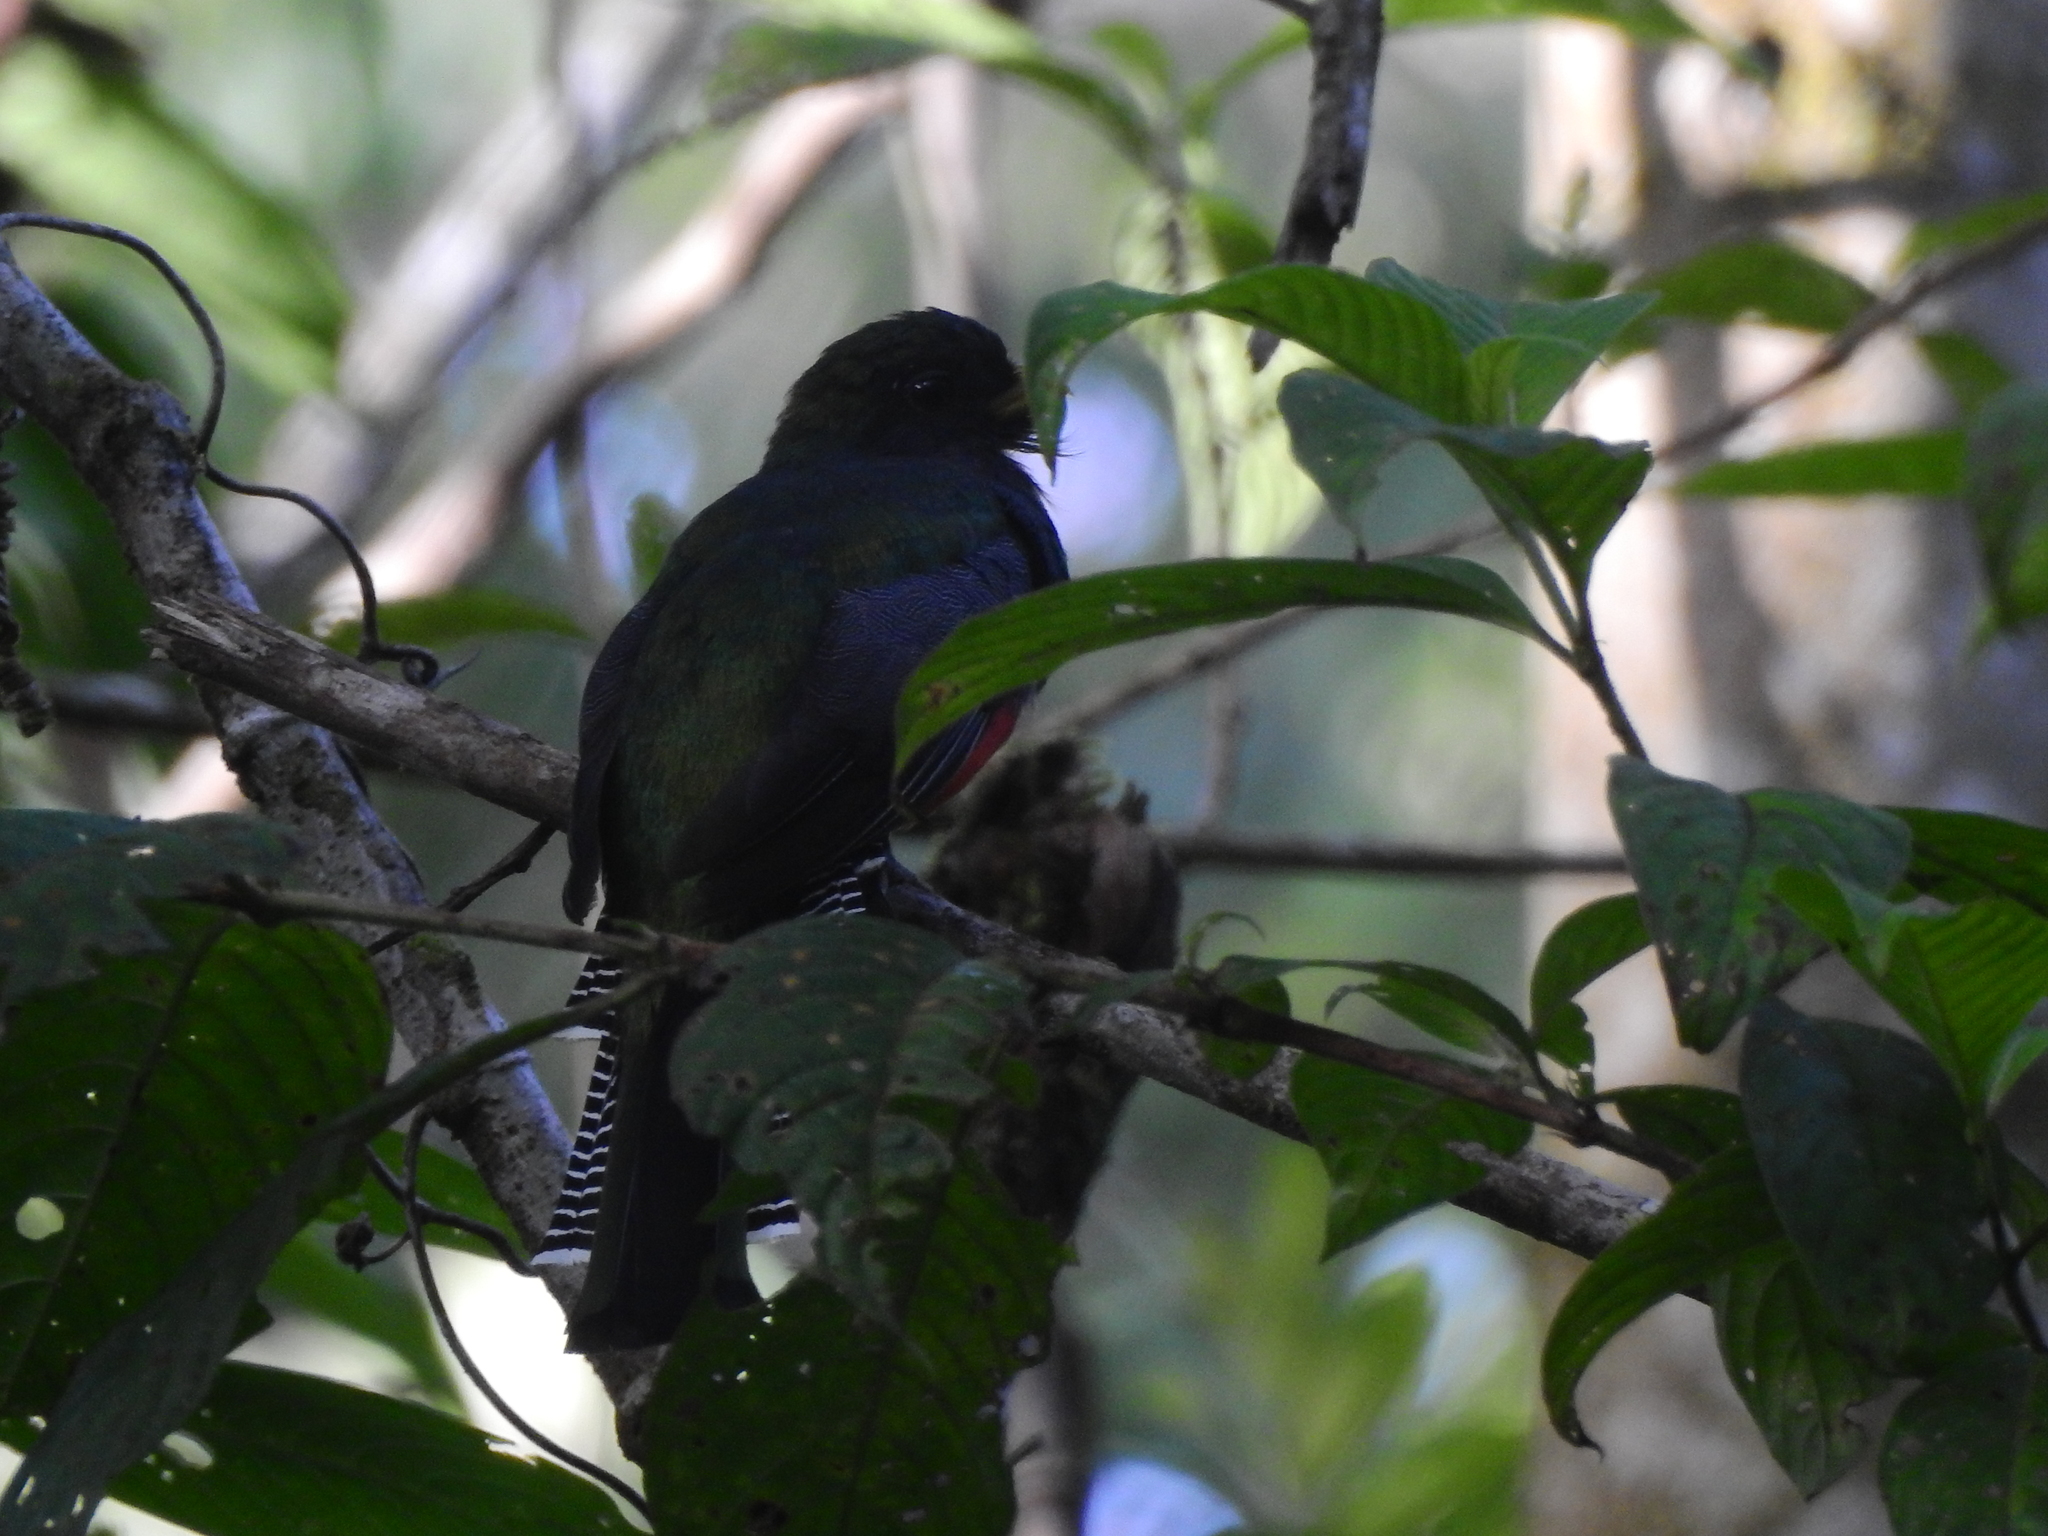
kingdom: Animalia
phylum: Chordata
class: Aves
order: Trogoniformes
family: Trogonidae
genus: Trogon
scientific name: Trogon collaris
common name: Collared trogon
